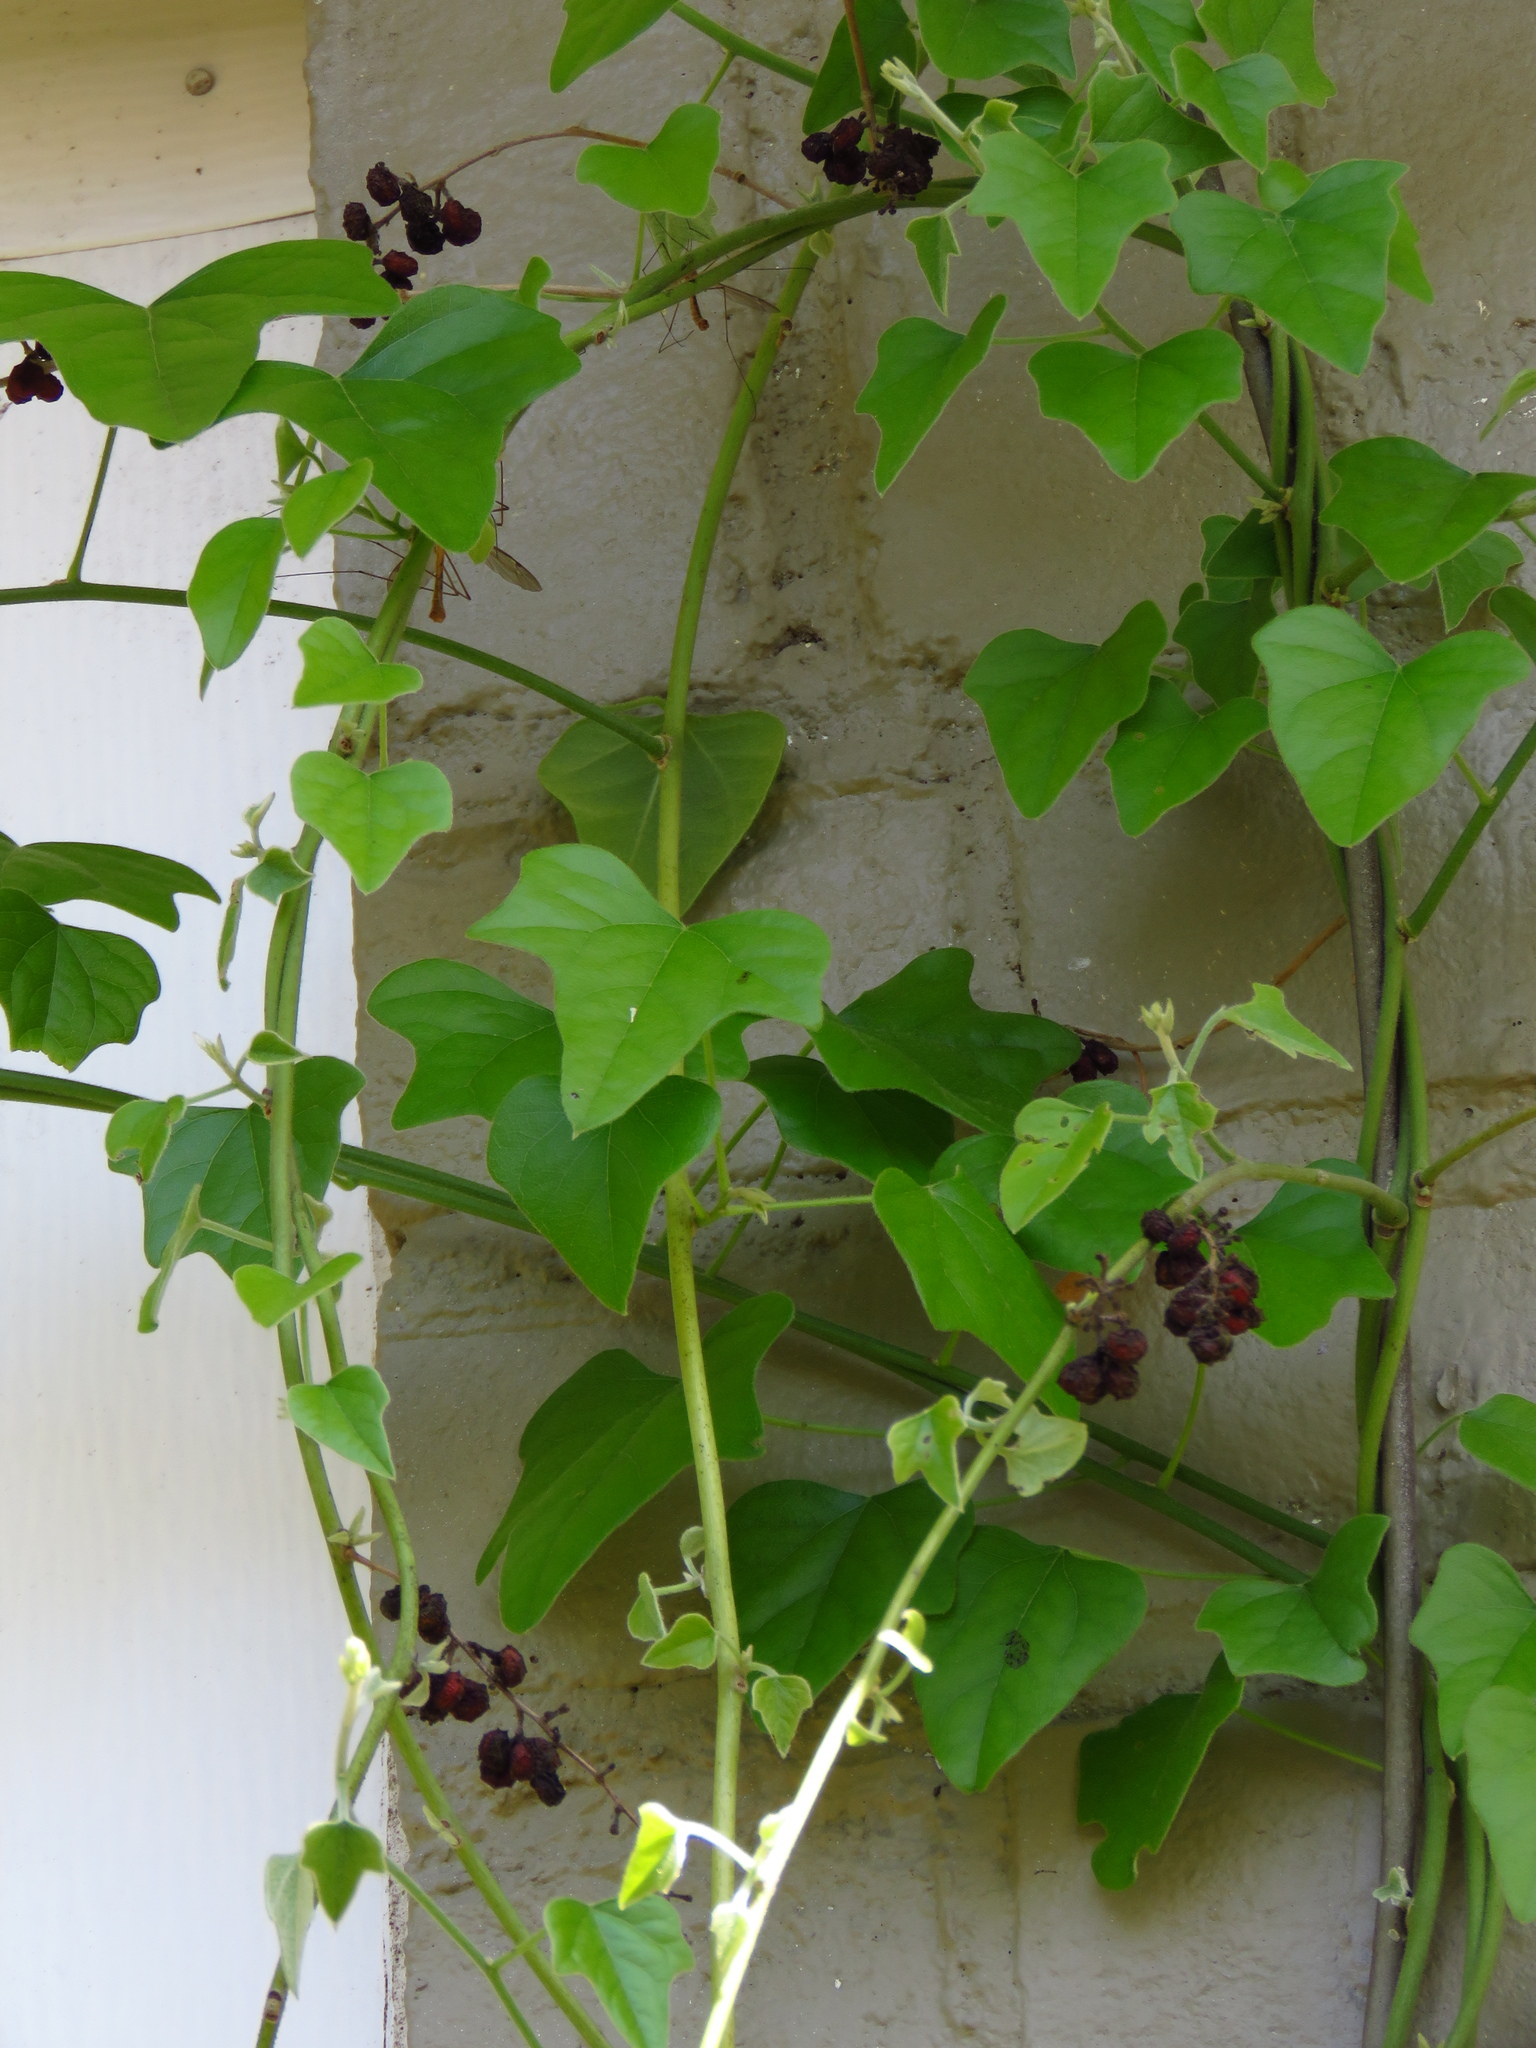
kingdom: Plantae
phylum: Tracheophyta
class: Magnoliopsida
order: Ranunculales
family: Menispermaceae
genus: Cocculus
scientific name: Cocculus carolinus
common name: Carolina moonseed
